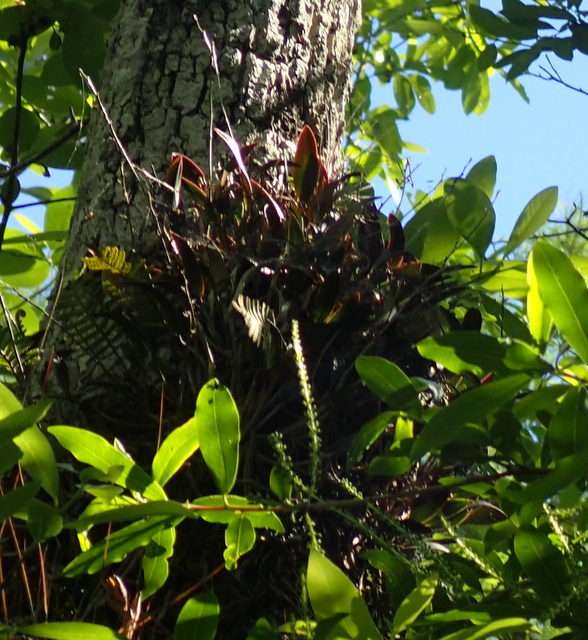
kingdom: Plantae
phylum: Tracheophyta
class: Liliopsida
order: Asparagales
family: Orchidaceae
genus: Epidendrum
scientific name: Epidendrum conopseum
